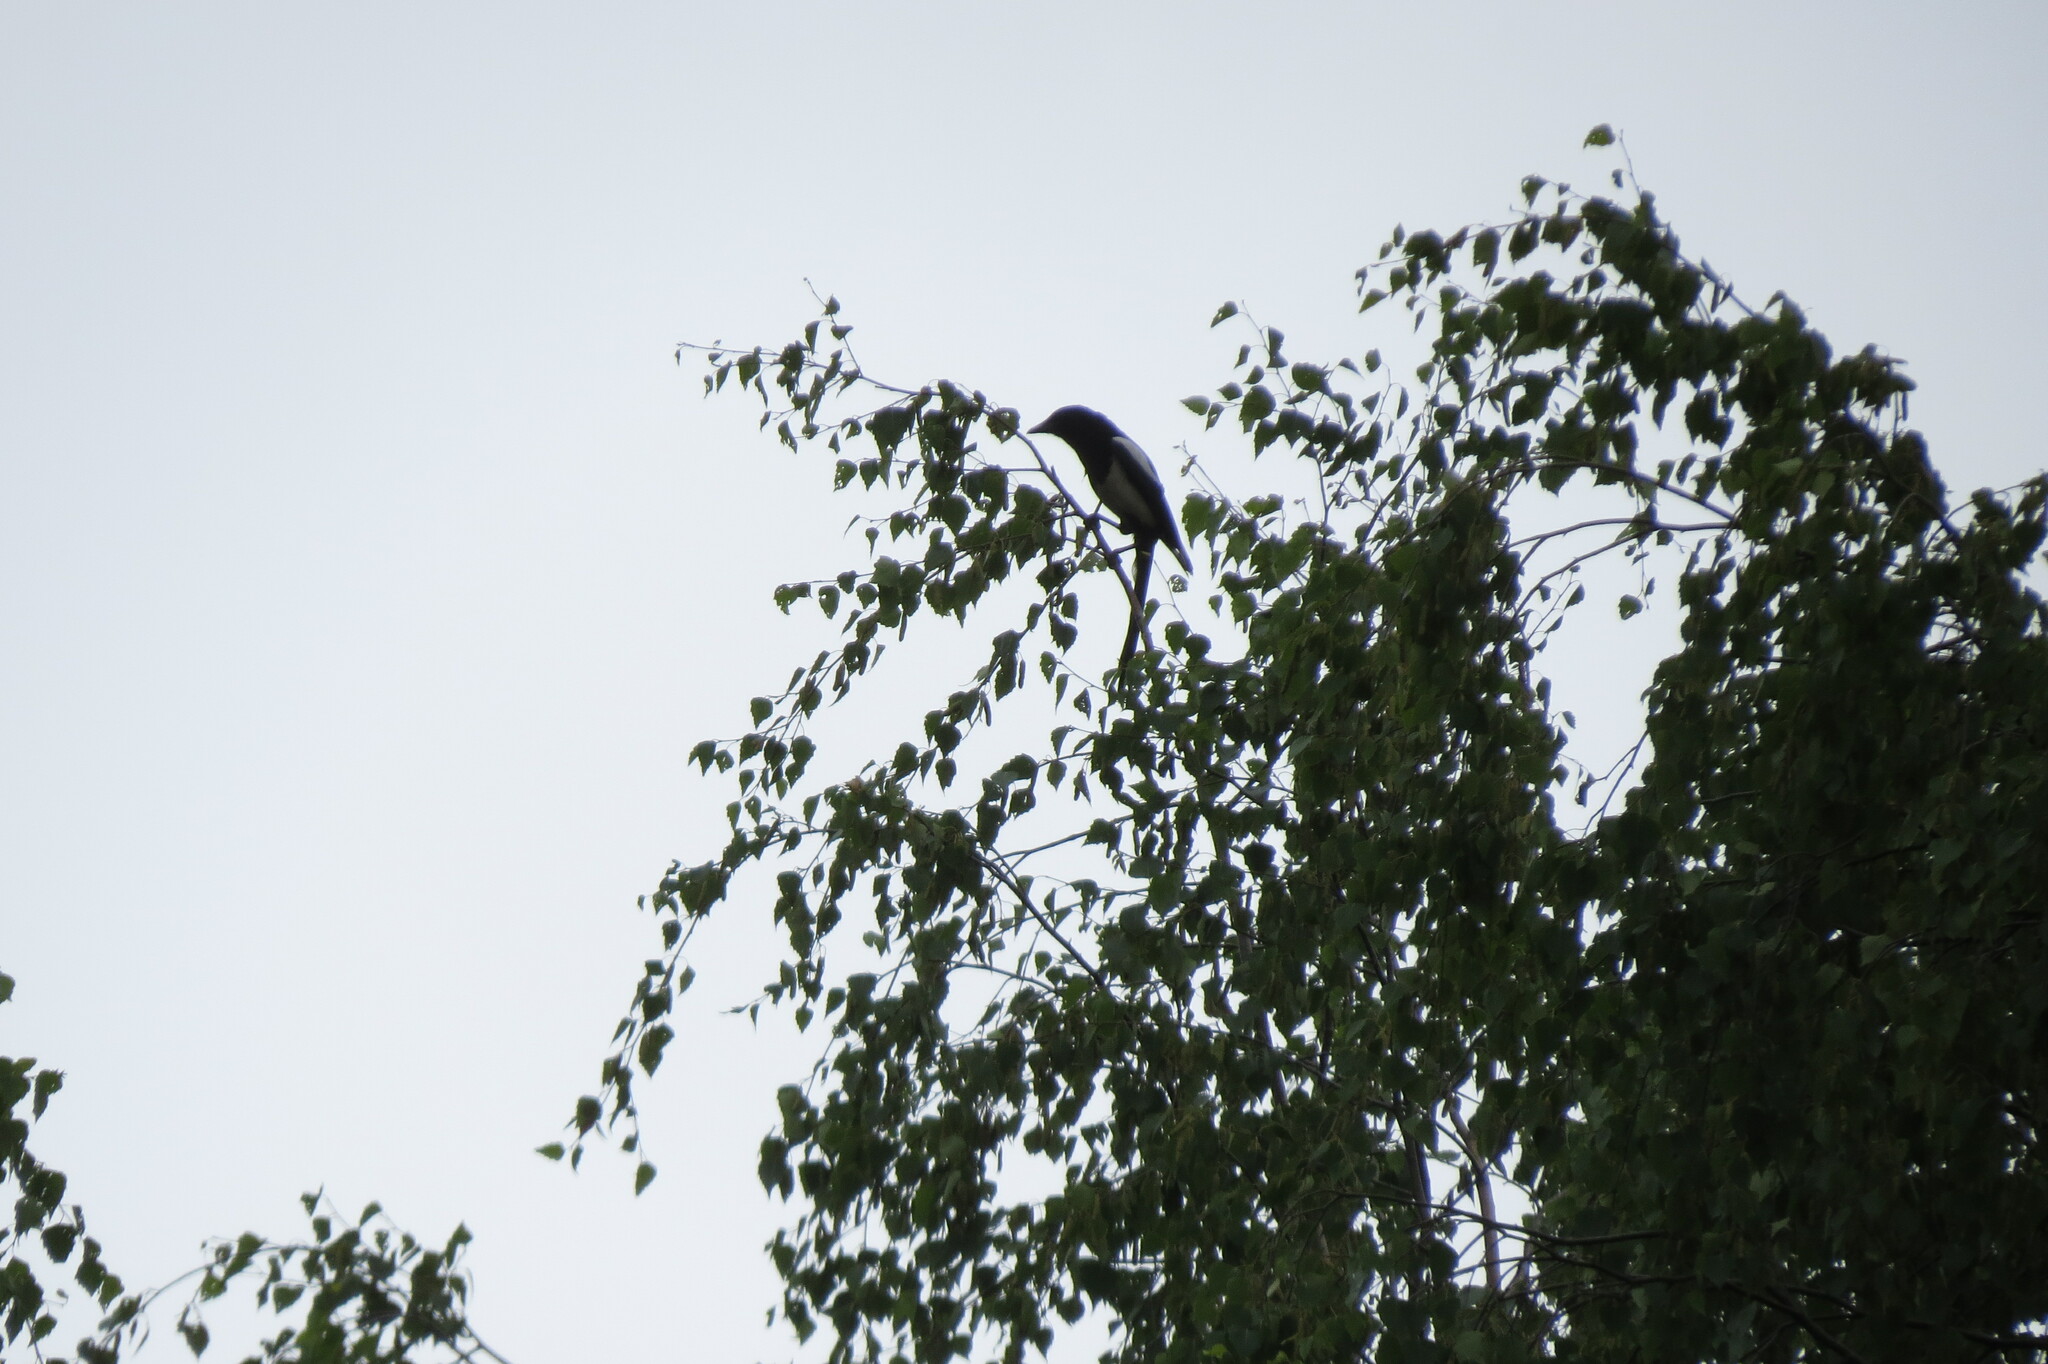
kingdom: Animalia
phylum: Chordata
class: Aves
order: Passeriformes
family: Corvidae
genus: Pica
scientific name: Pica pica
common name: Eurasian magpie
